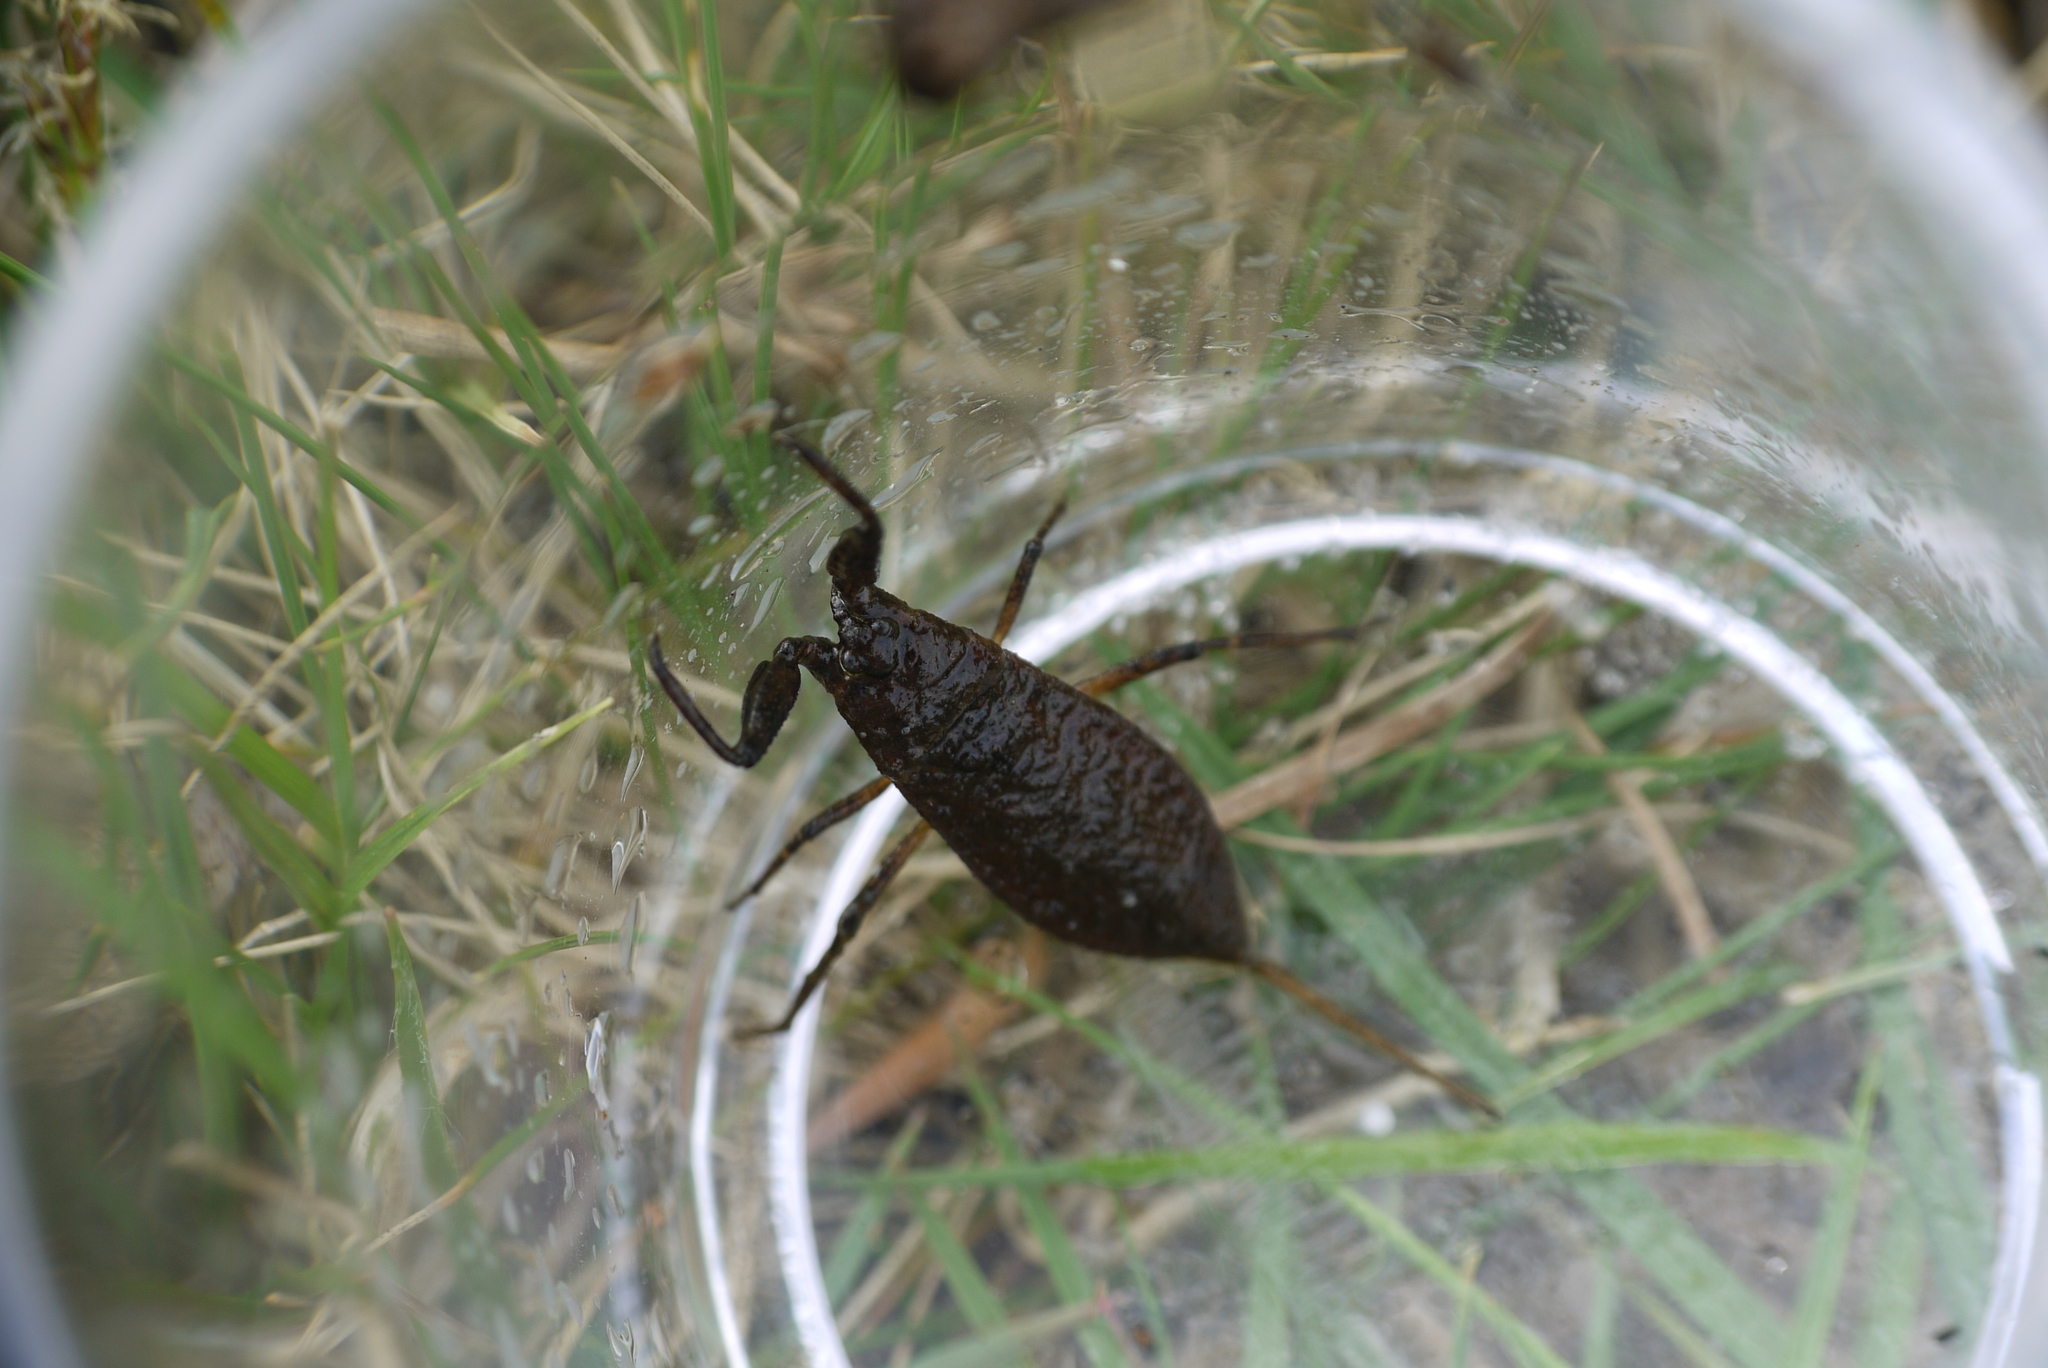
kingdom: Animalia
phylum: Arthropoda
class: Insecta
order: Hemiptera
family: Nepidae
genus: Nepa
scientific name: Nepa cinerea
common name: Water scorpion
